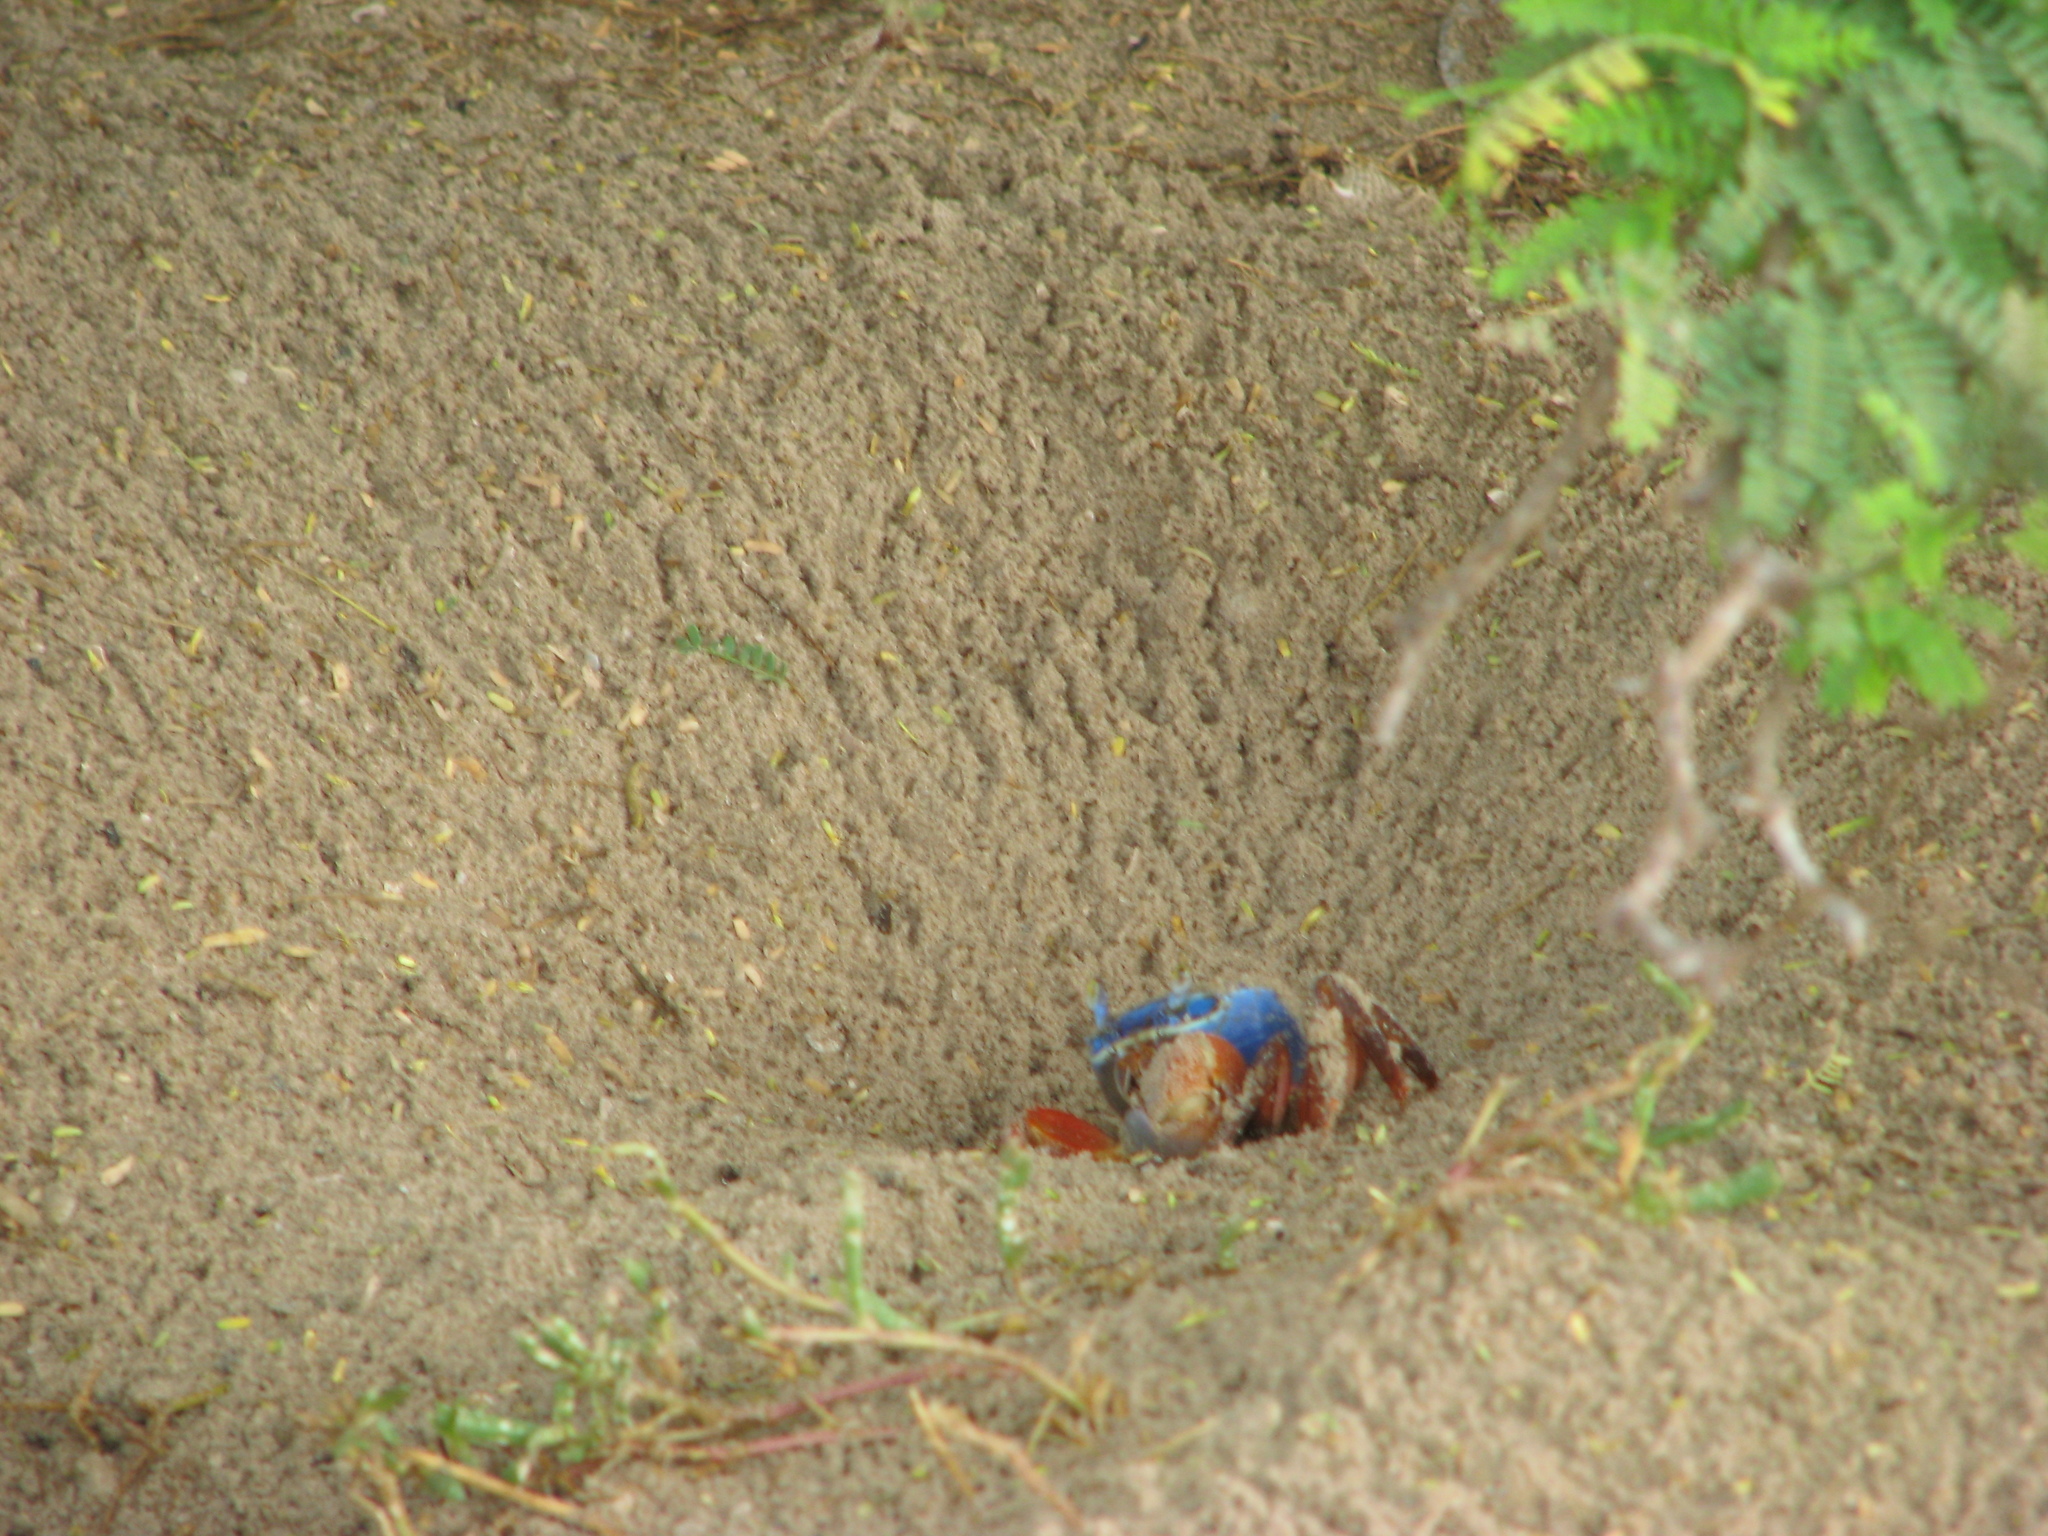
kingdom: Animalia
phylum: Arthropoda
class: Malacostraca
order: Decapoda
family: Gecarcinidae
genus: Cardisoma
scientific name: Cardisoma armatum
